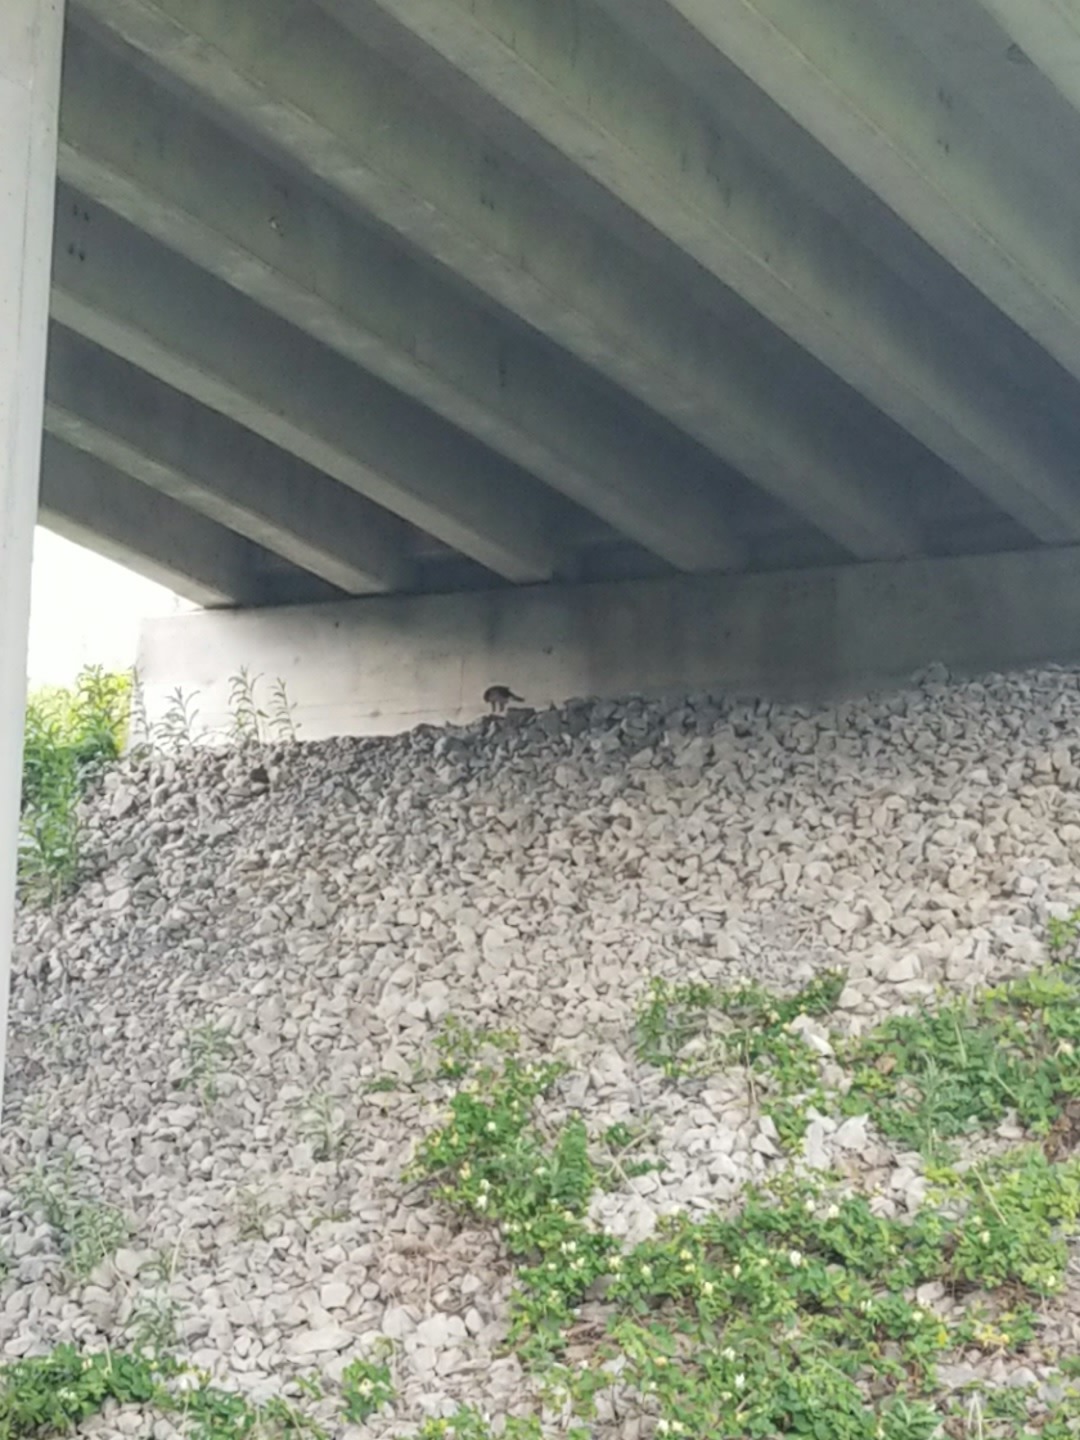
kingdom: Animalia
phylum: Chordata
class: Aves
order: Accipitriformes
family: Accipitridae
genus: Accipiter
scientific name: Accipiter cooperii
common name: Cooper's hawk
